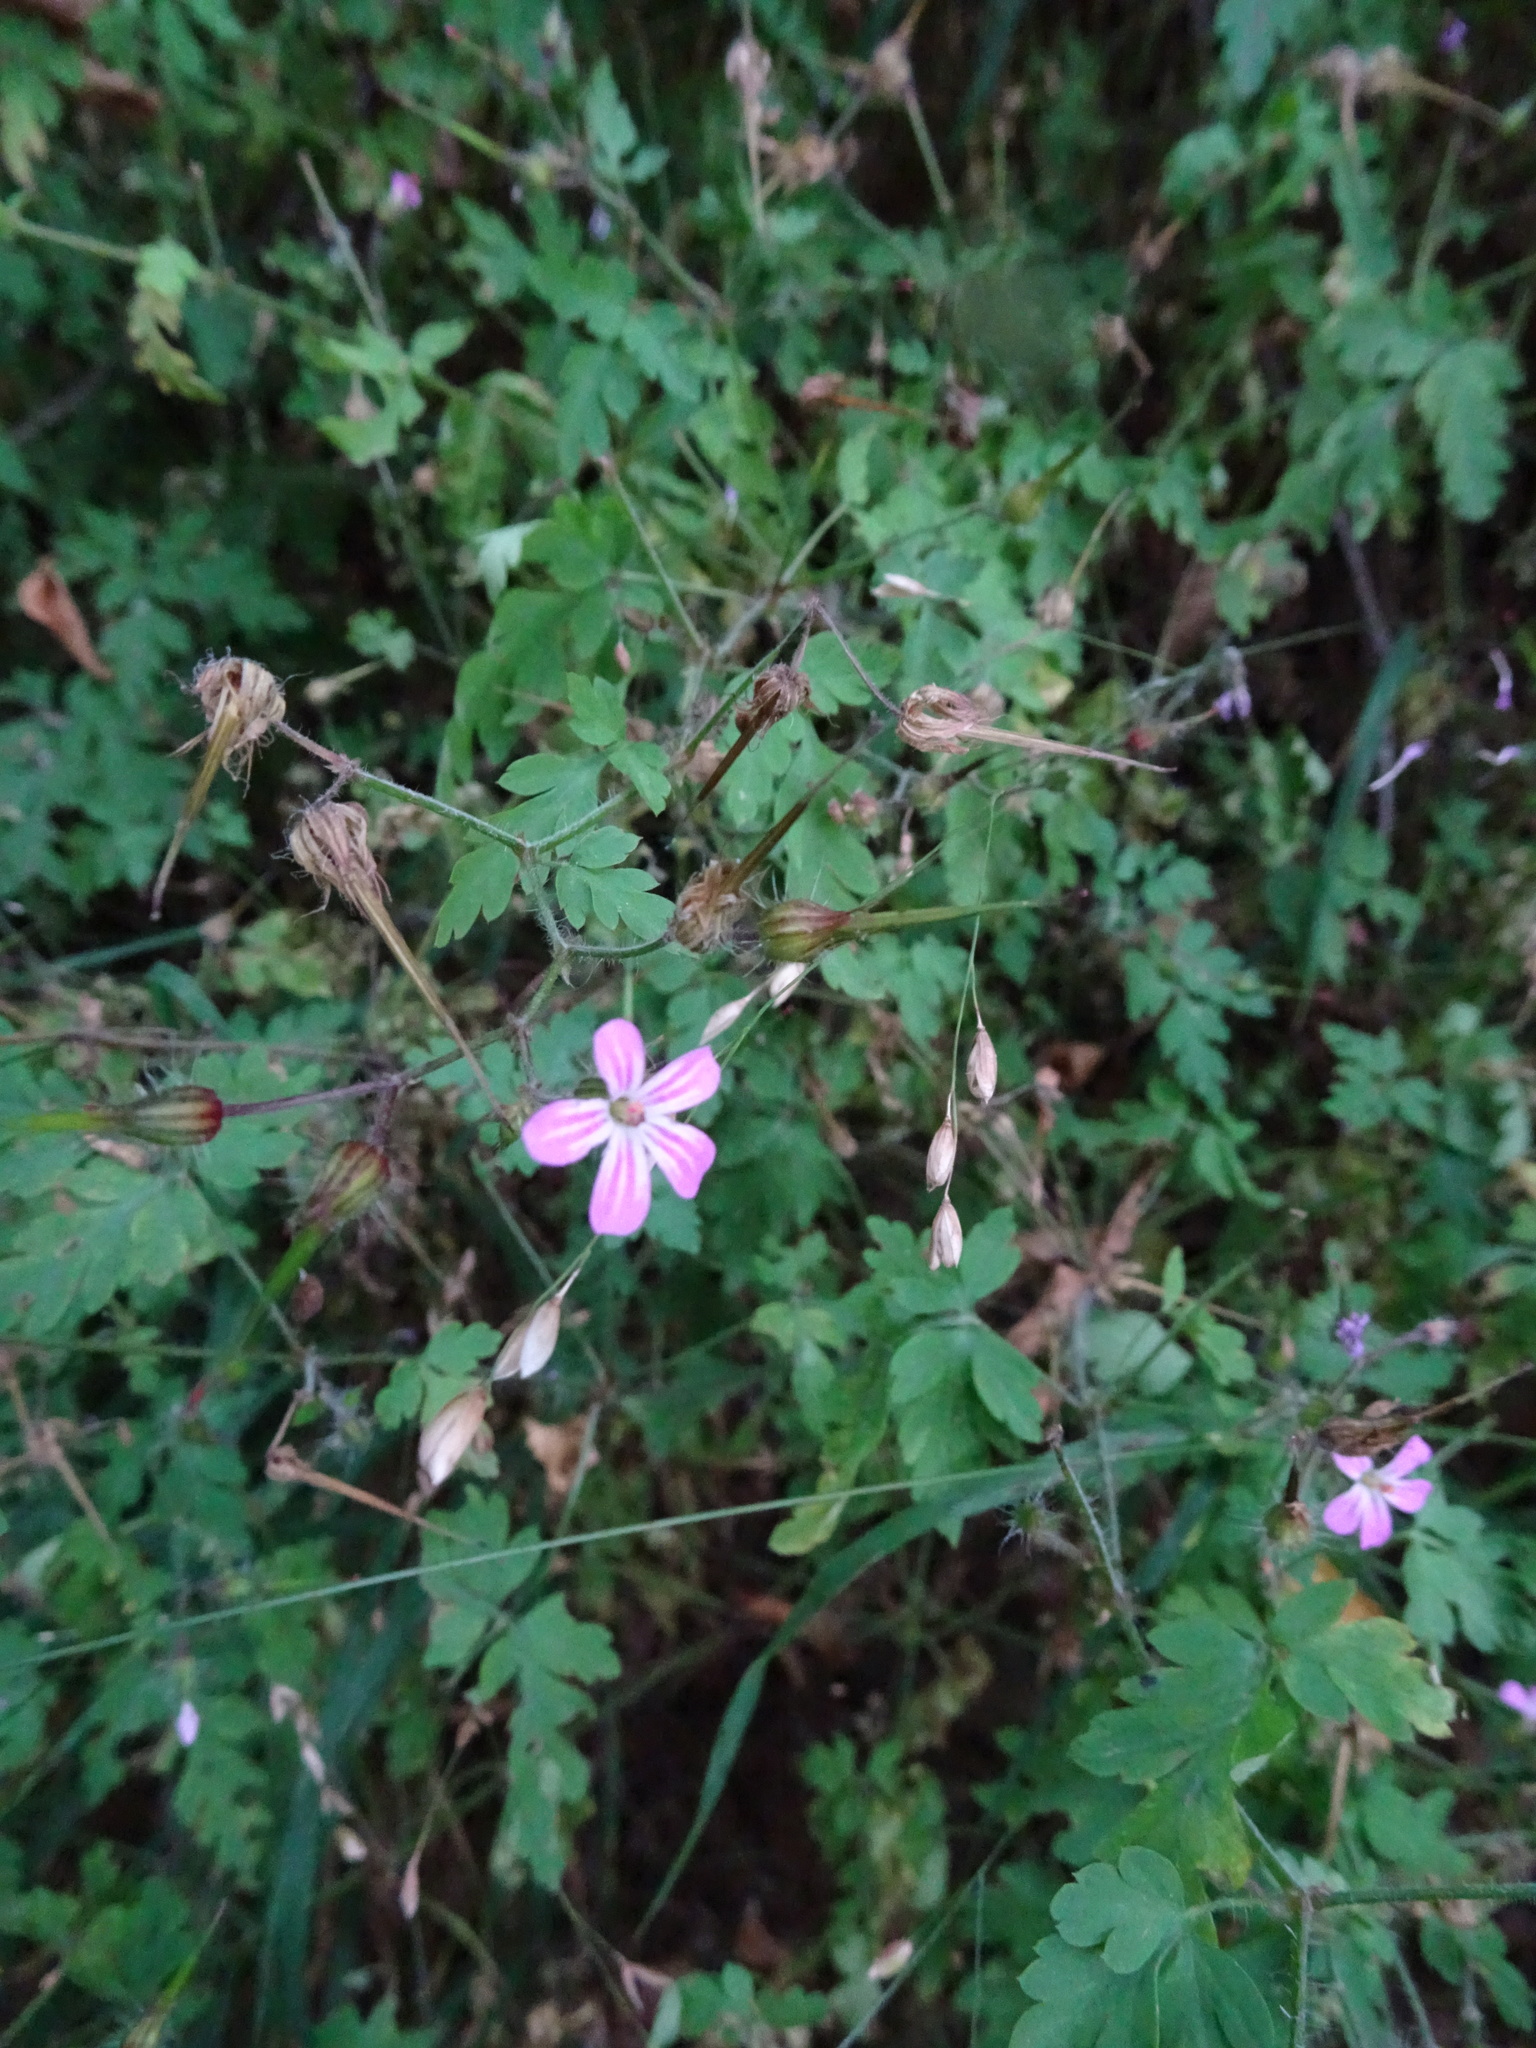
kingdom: Plantae
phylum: Tracheophyta
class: Magnoliopsida
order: Geraniales
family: Geraniaceae
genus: Geranium
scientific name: Geranium robertianum
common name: Herb-robert
